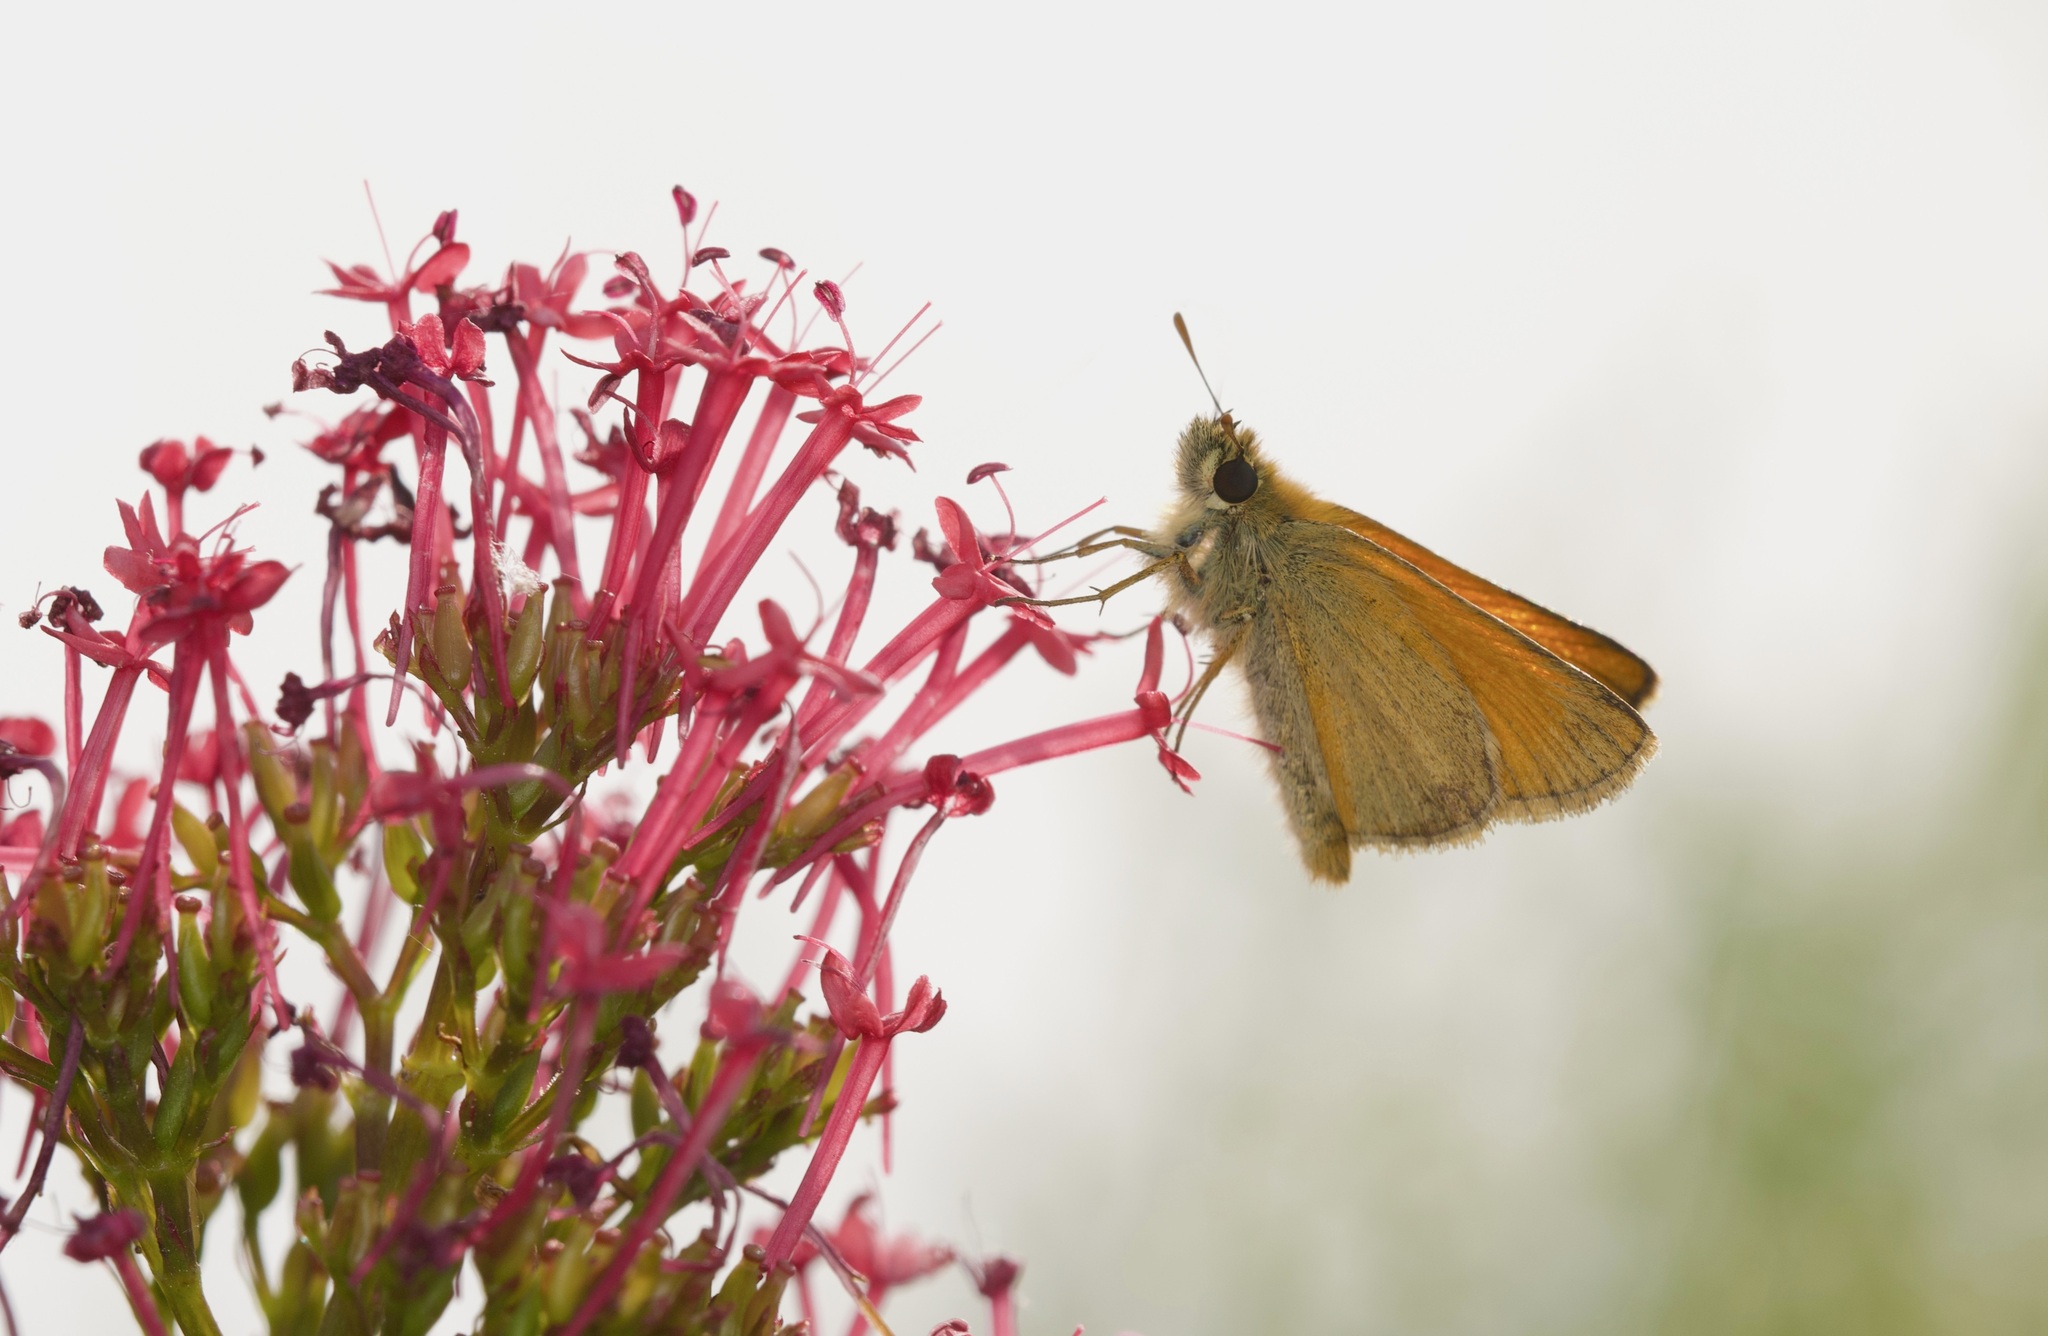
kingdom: Animalia
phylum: Arthropoda
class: Insecta
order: Lepidoptera
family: Hesperiidae
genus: Thymelicus
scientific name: Thymelicus sylvestris
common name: Small skipper
